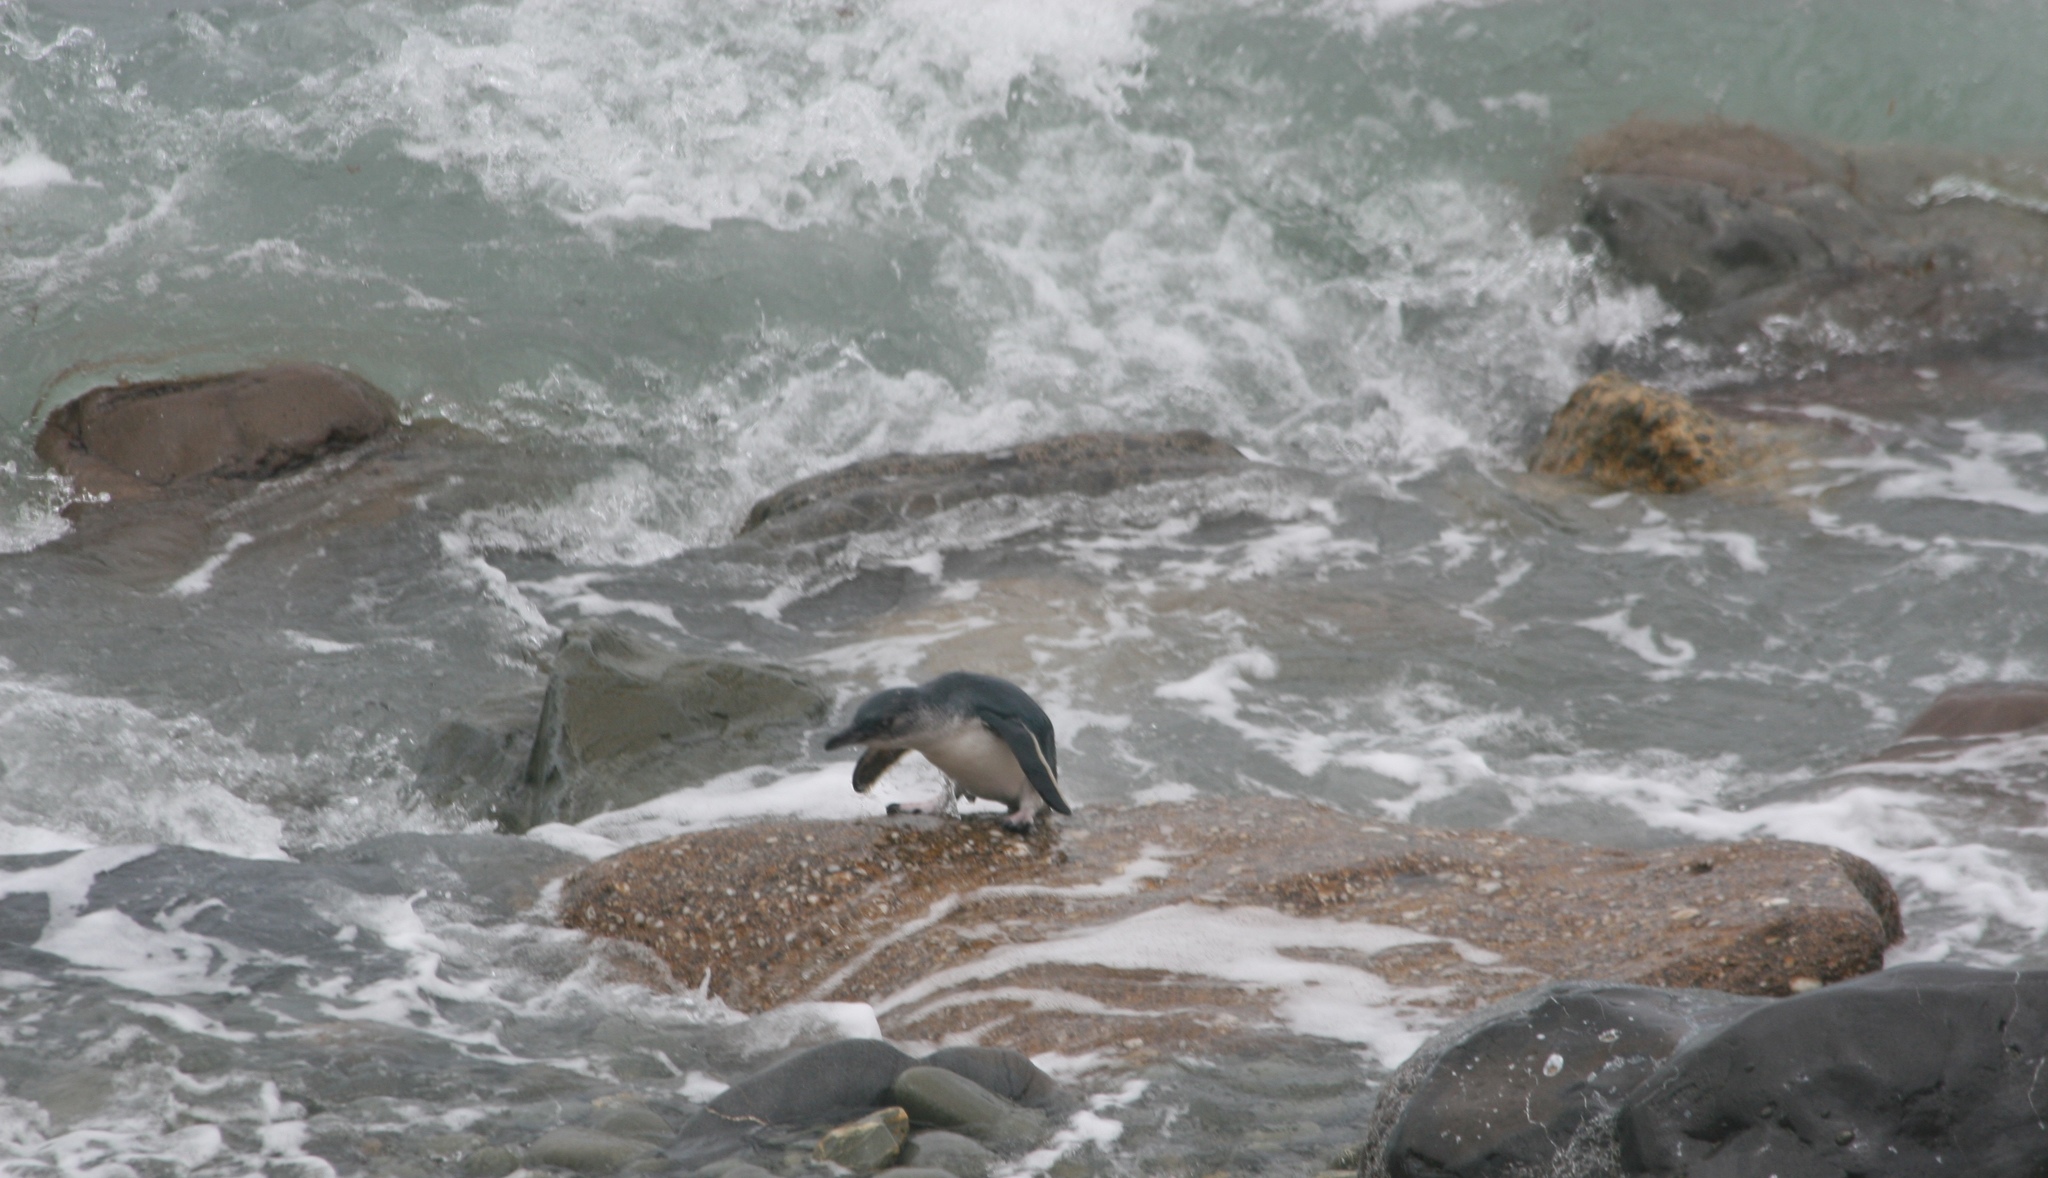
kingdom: Animalia
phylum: Chordata
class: Aves
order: Sphenisciformes
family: Spheniscidae
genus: Eudyptula
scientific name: Eudyptula minor
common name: Little penguin
